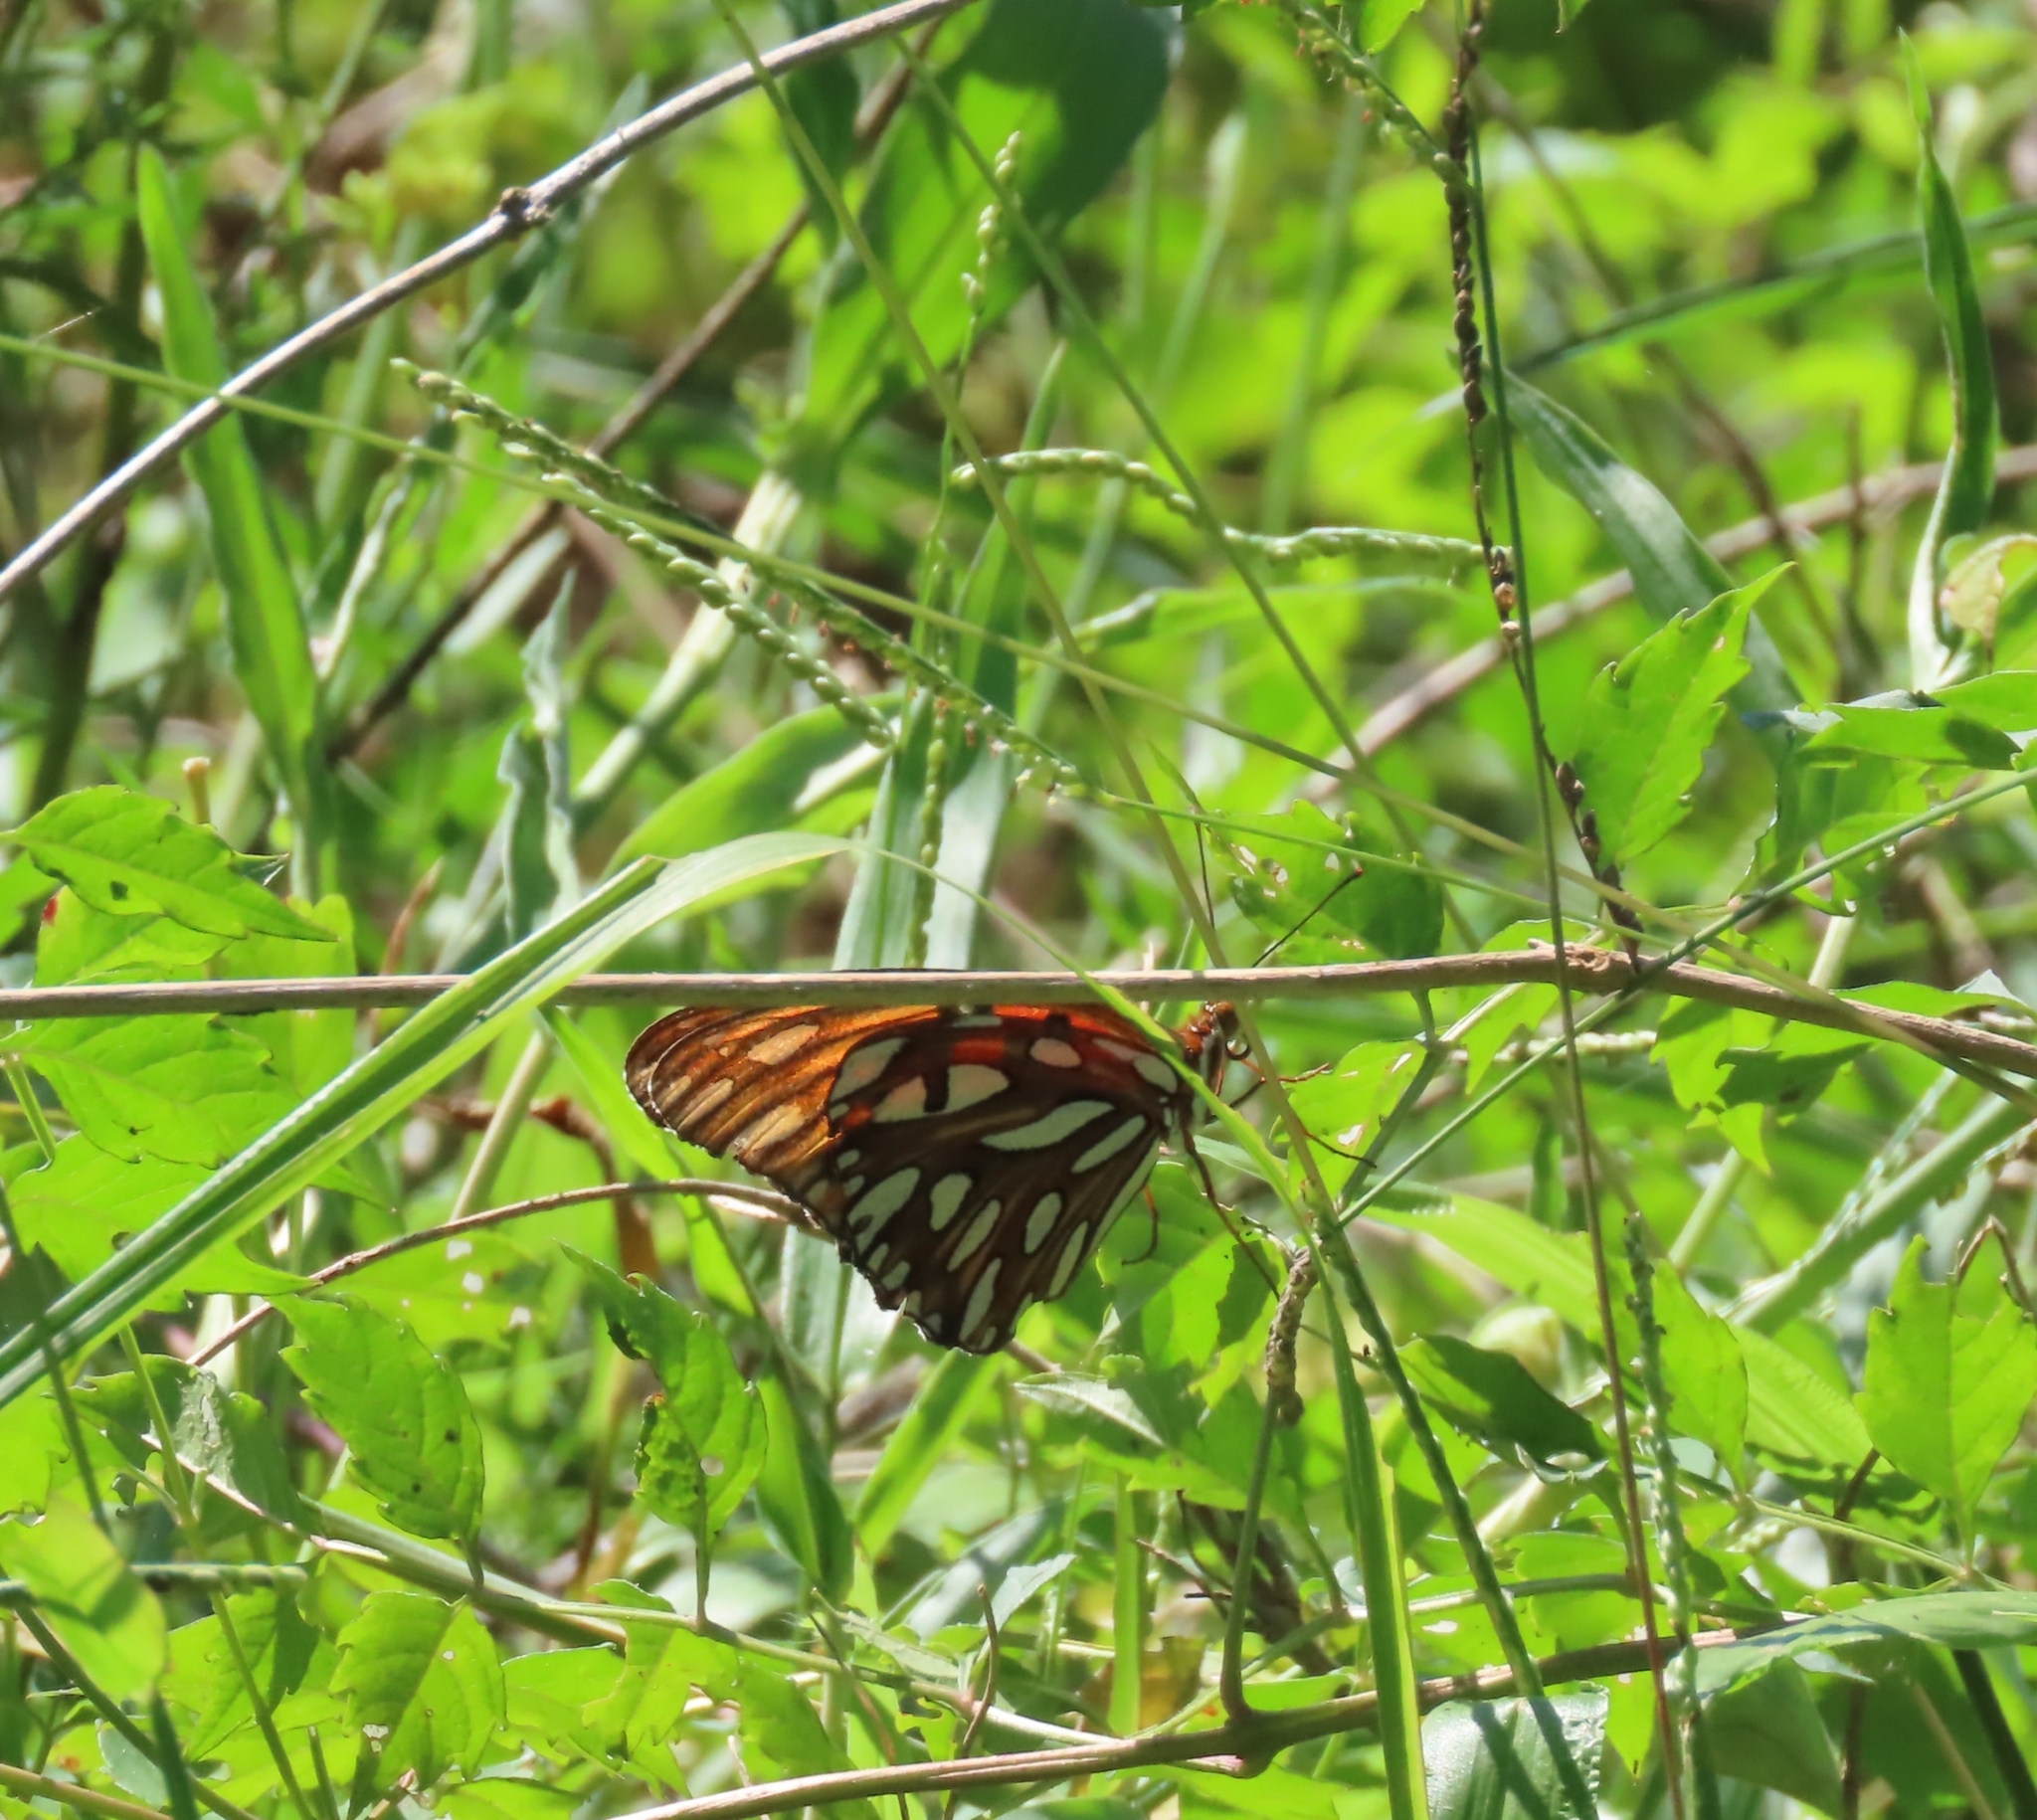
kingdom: Animalia
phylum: Arthropoda
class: Insecta
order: Lepidoptera
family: Nymphalidae
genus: Dione
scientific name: Dione vanillae
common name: Gulf fritillary
